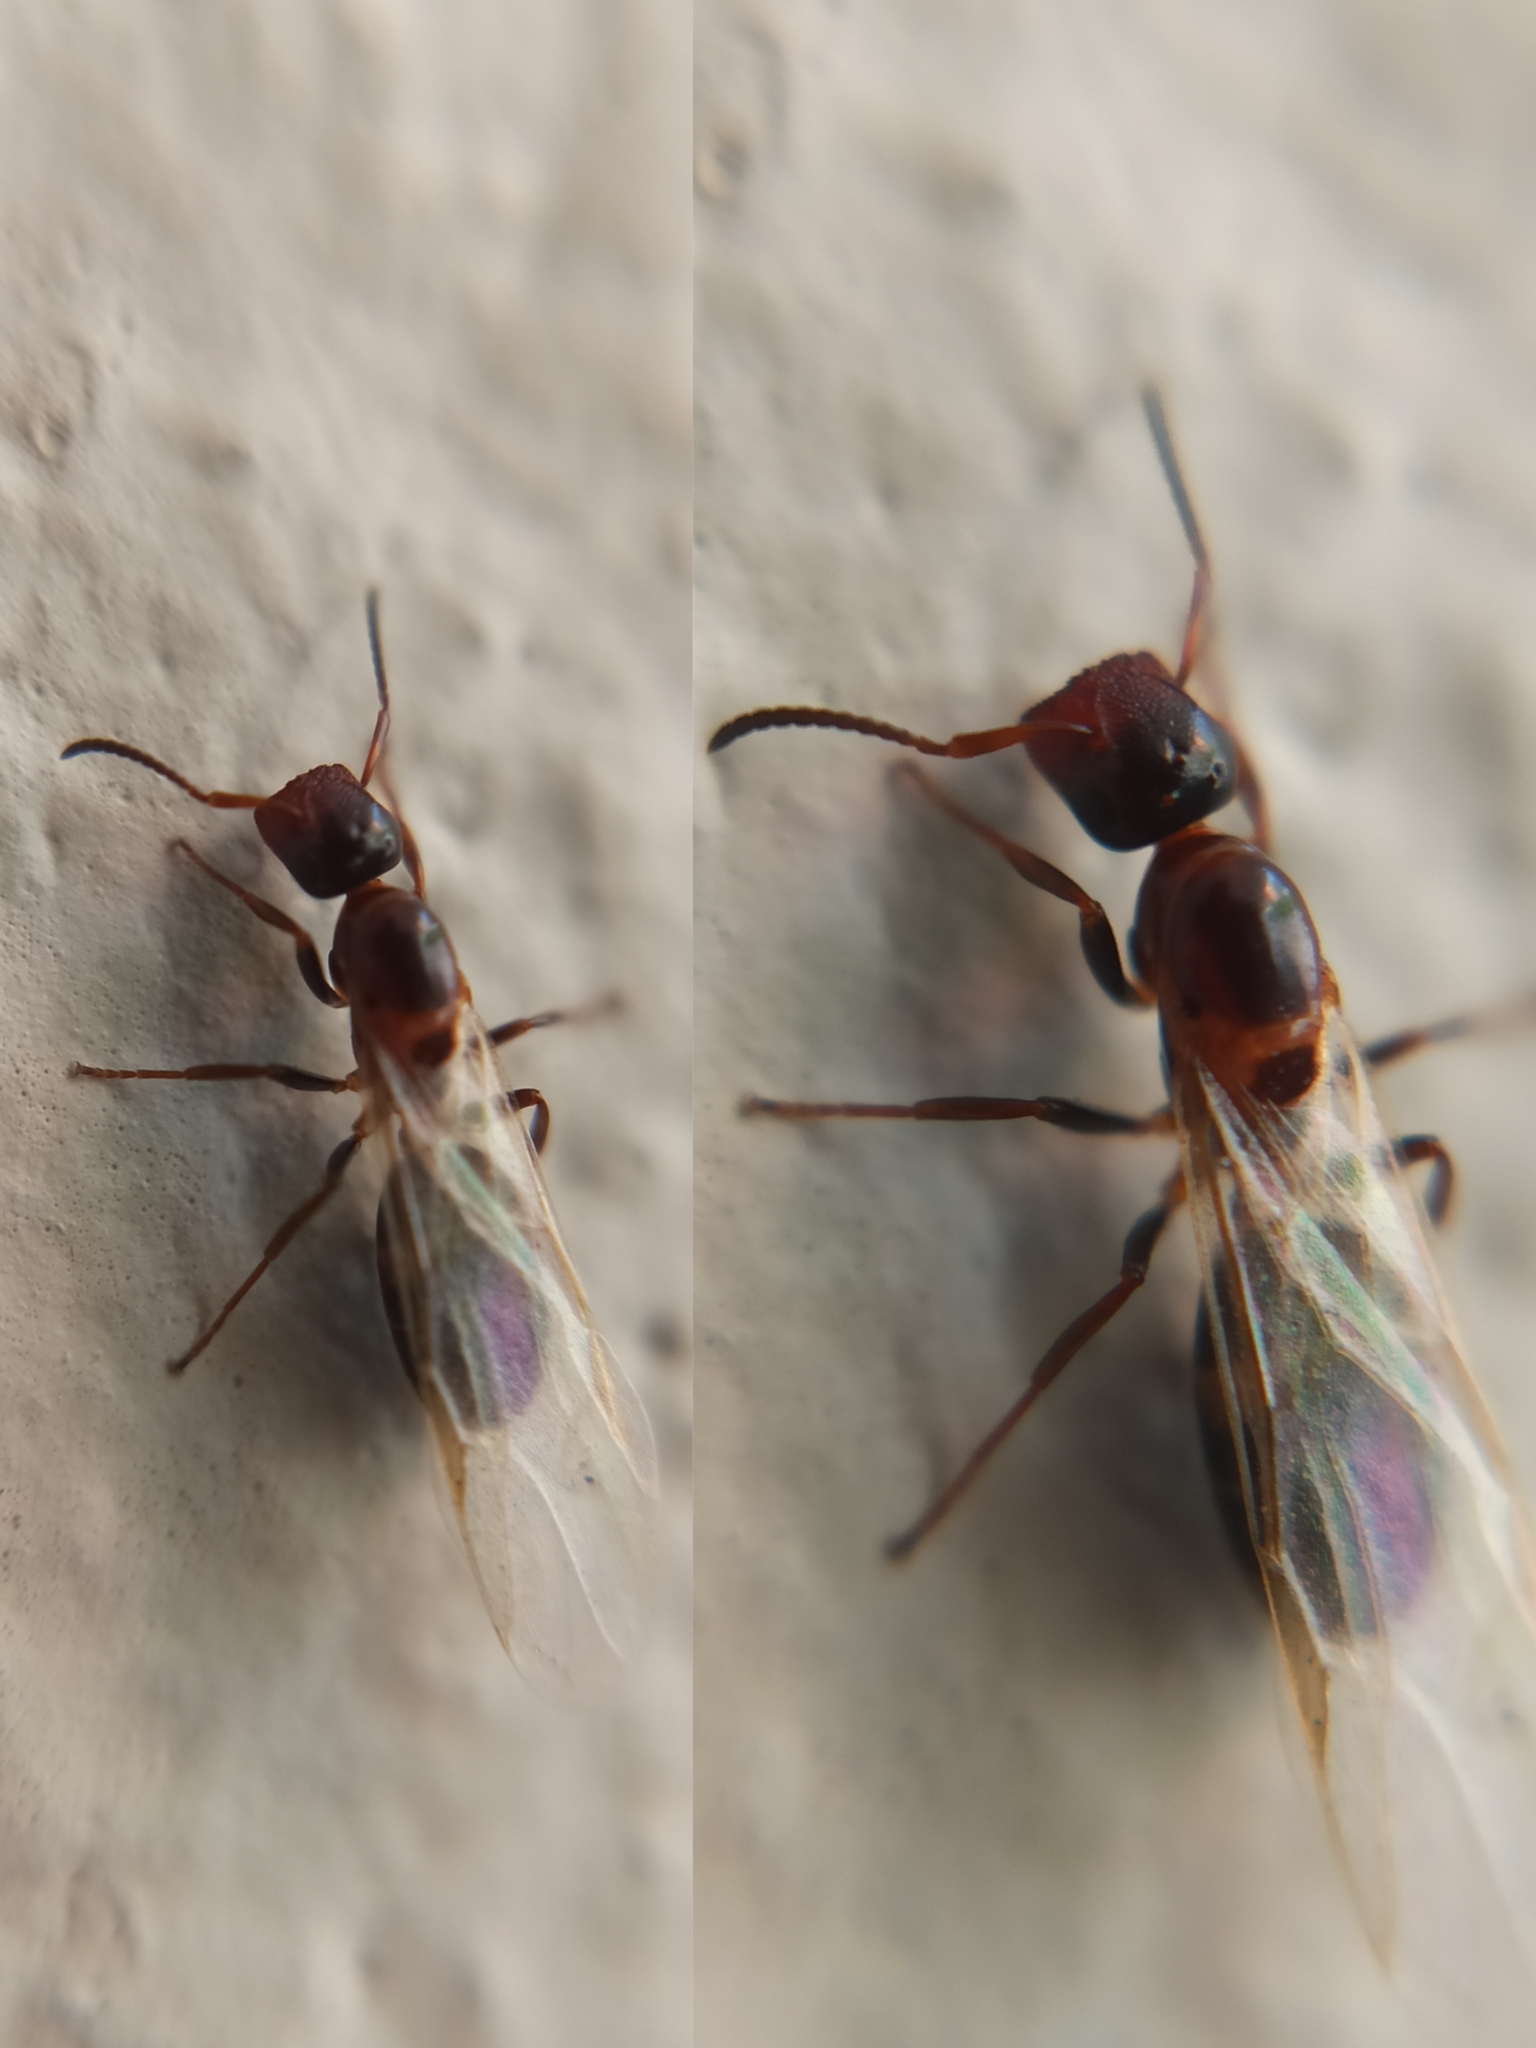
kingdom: Animalia
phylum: Arthropoda
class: Insecta
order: Hymenoptera
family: Formicidae
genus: Camponotus
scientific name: Camponotus truncatus
